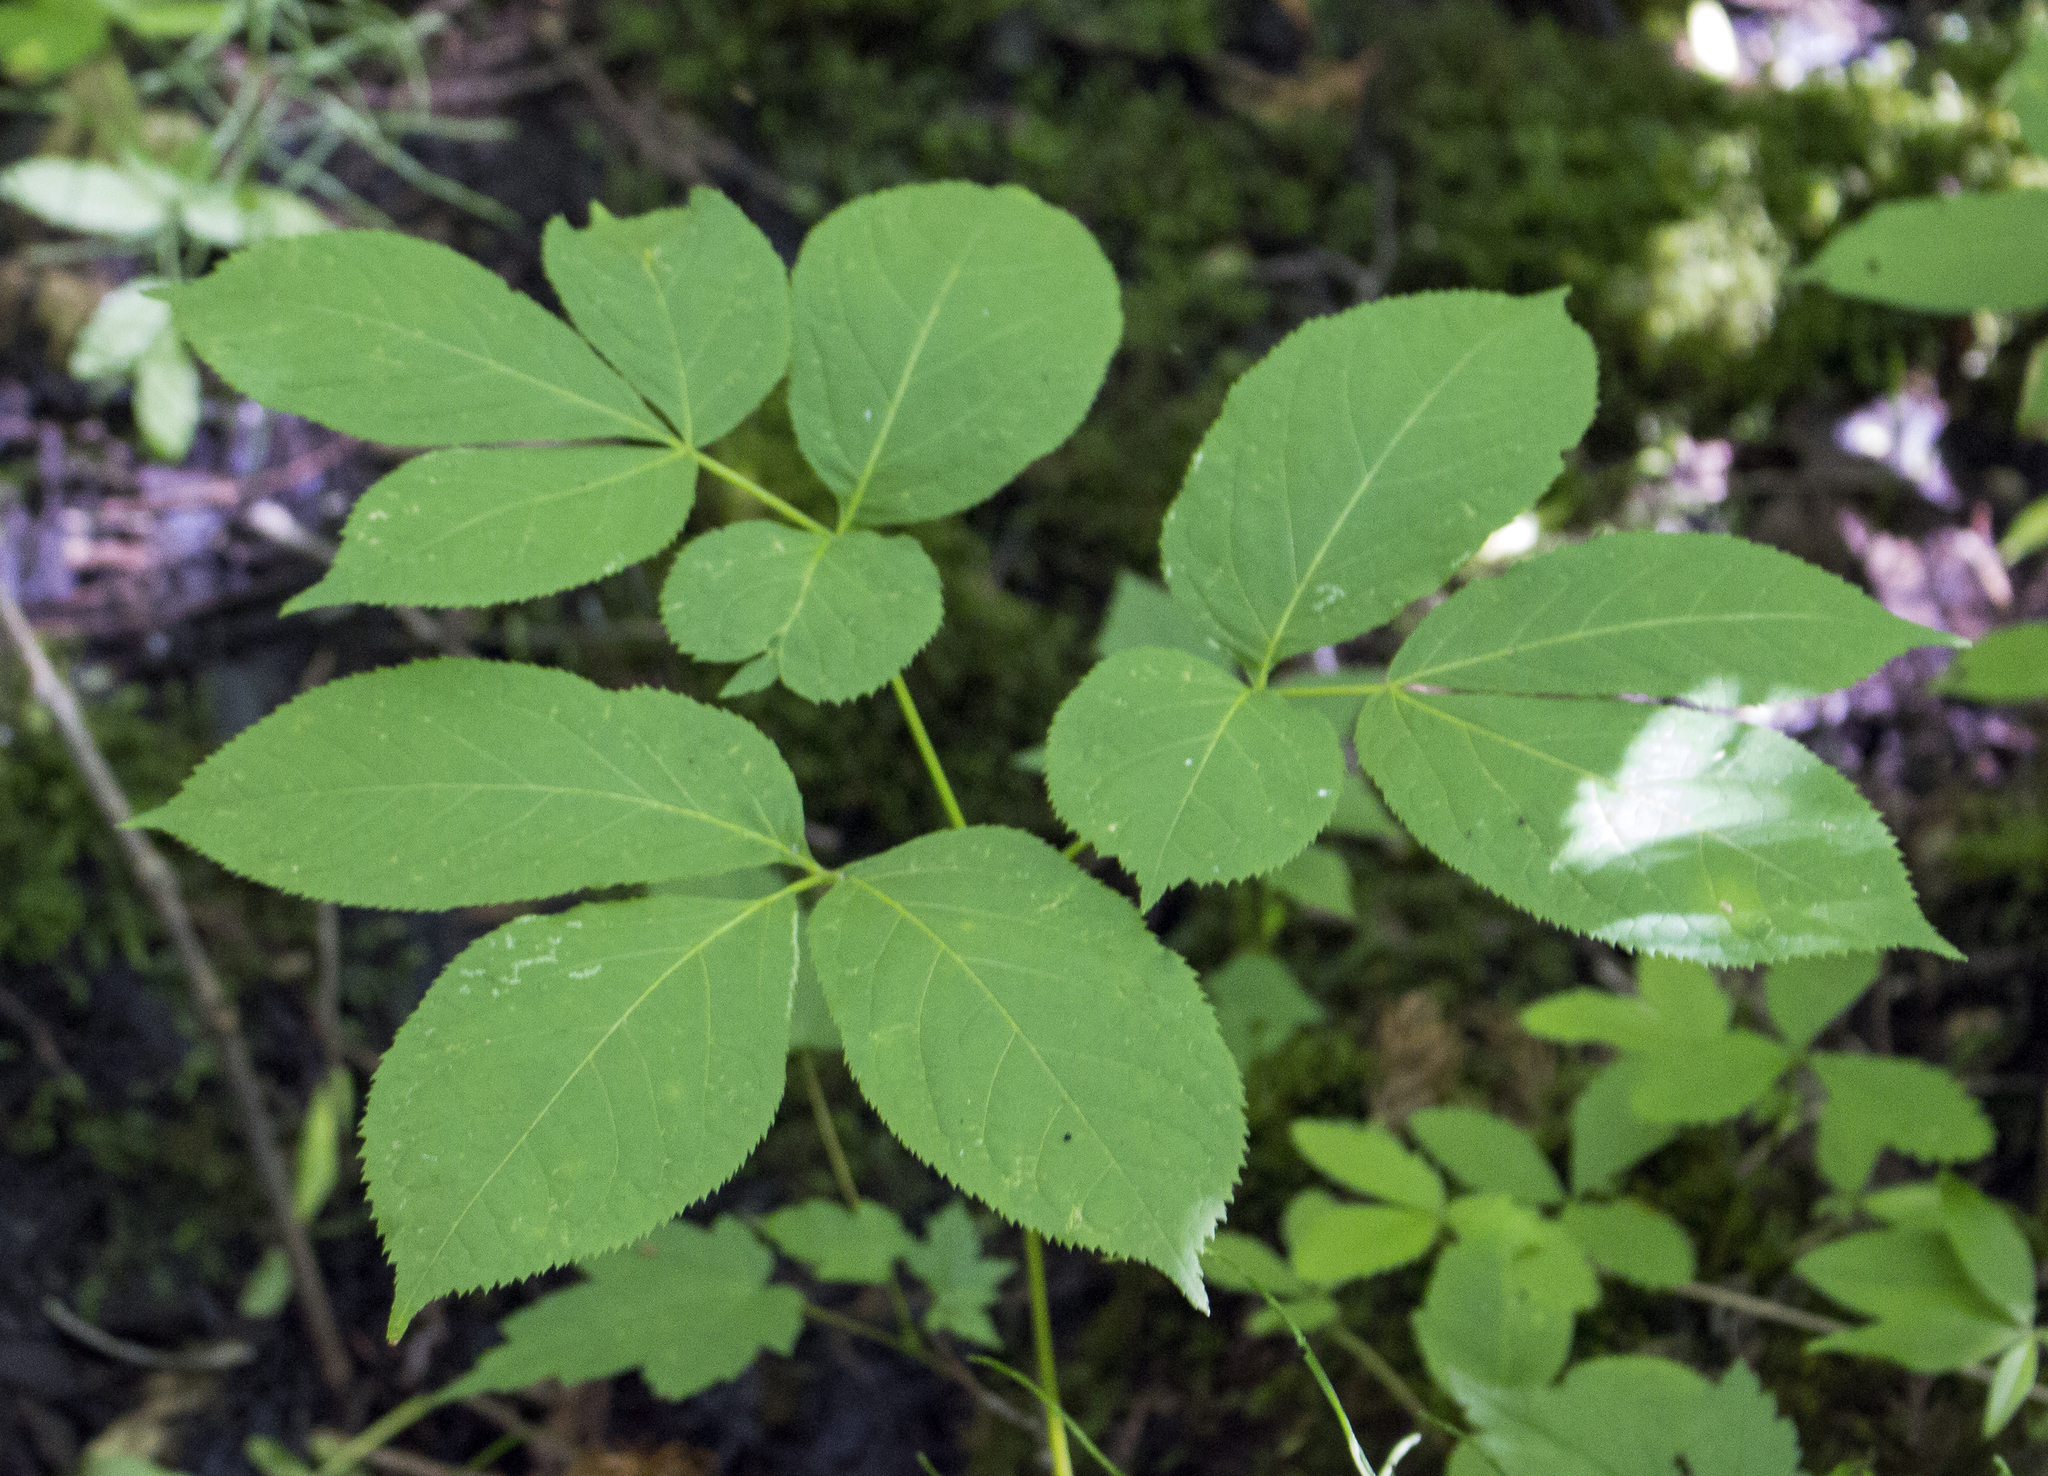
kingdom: Plantae
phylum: Tracheophyta
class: Magnoliopsida
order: Apiales
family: Araliaceae
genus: Aralia
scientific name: Aralia nudicaulis
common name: Wild sarsaparilla
